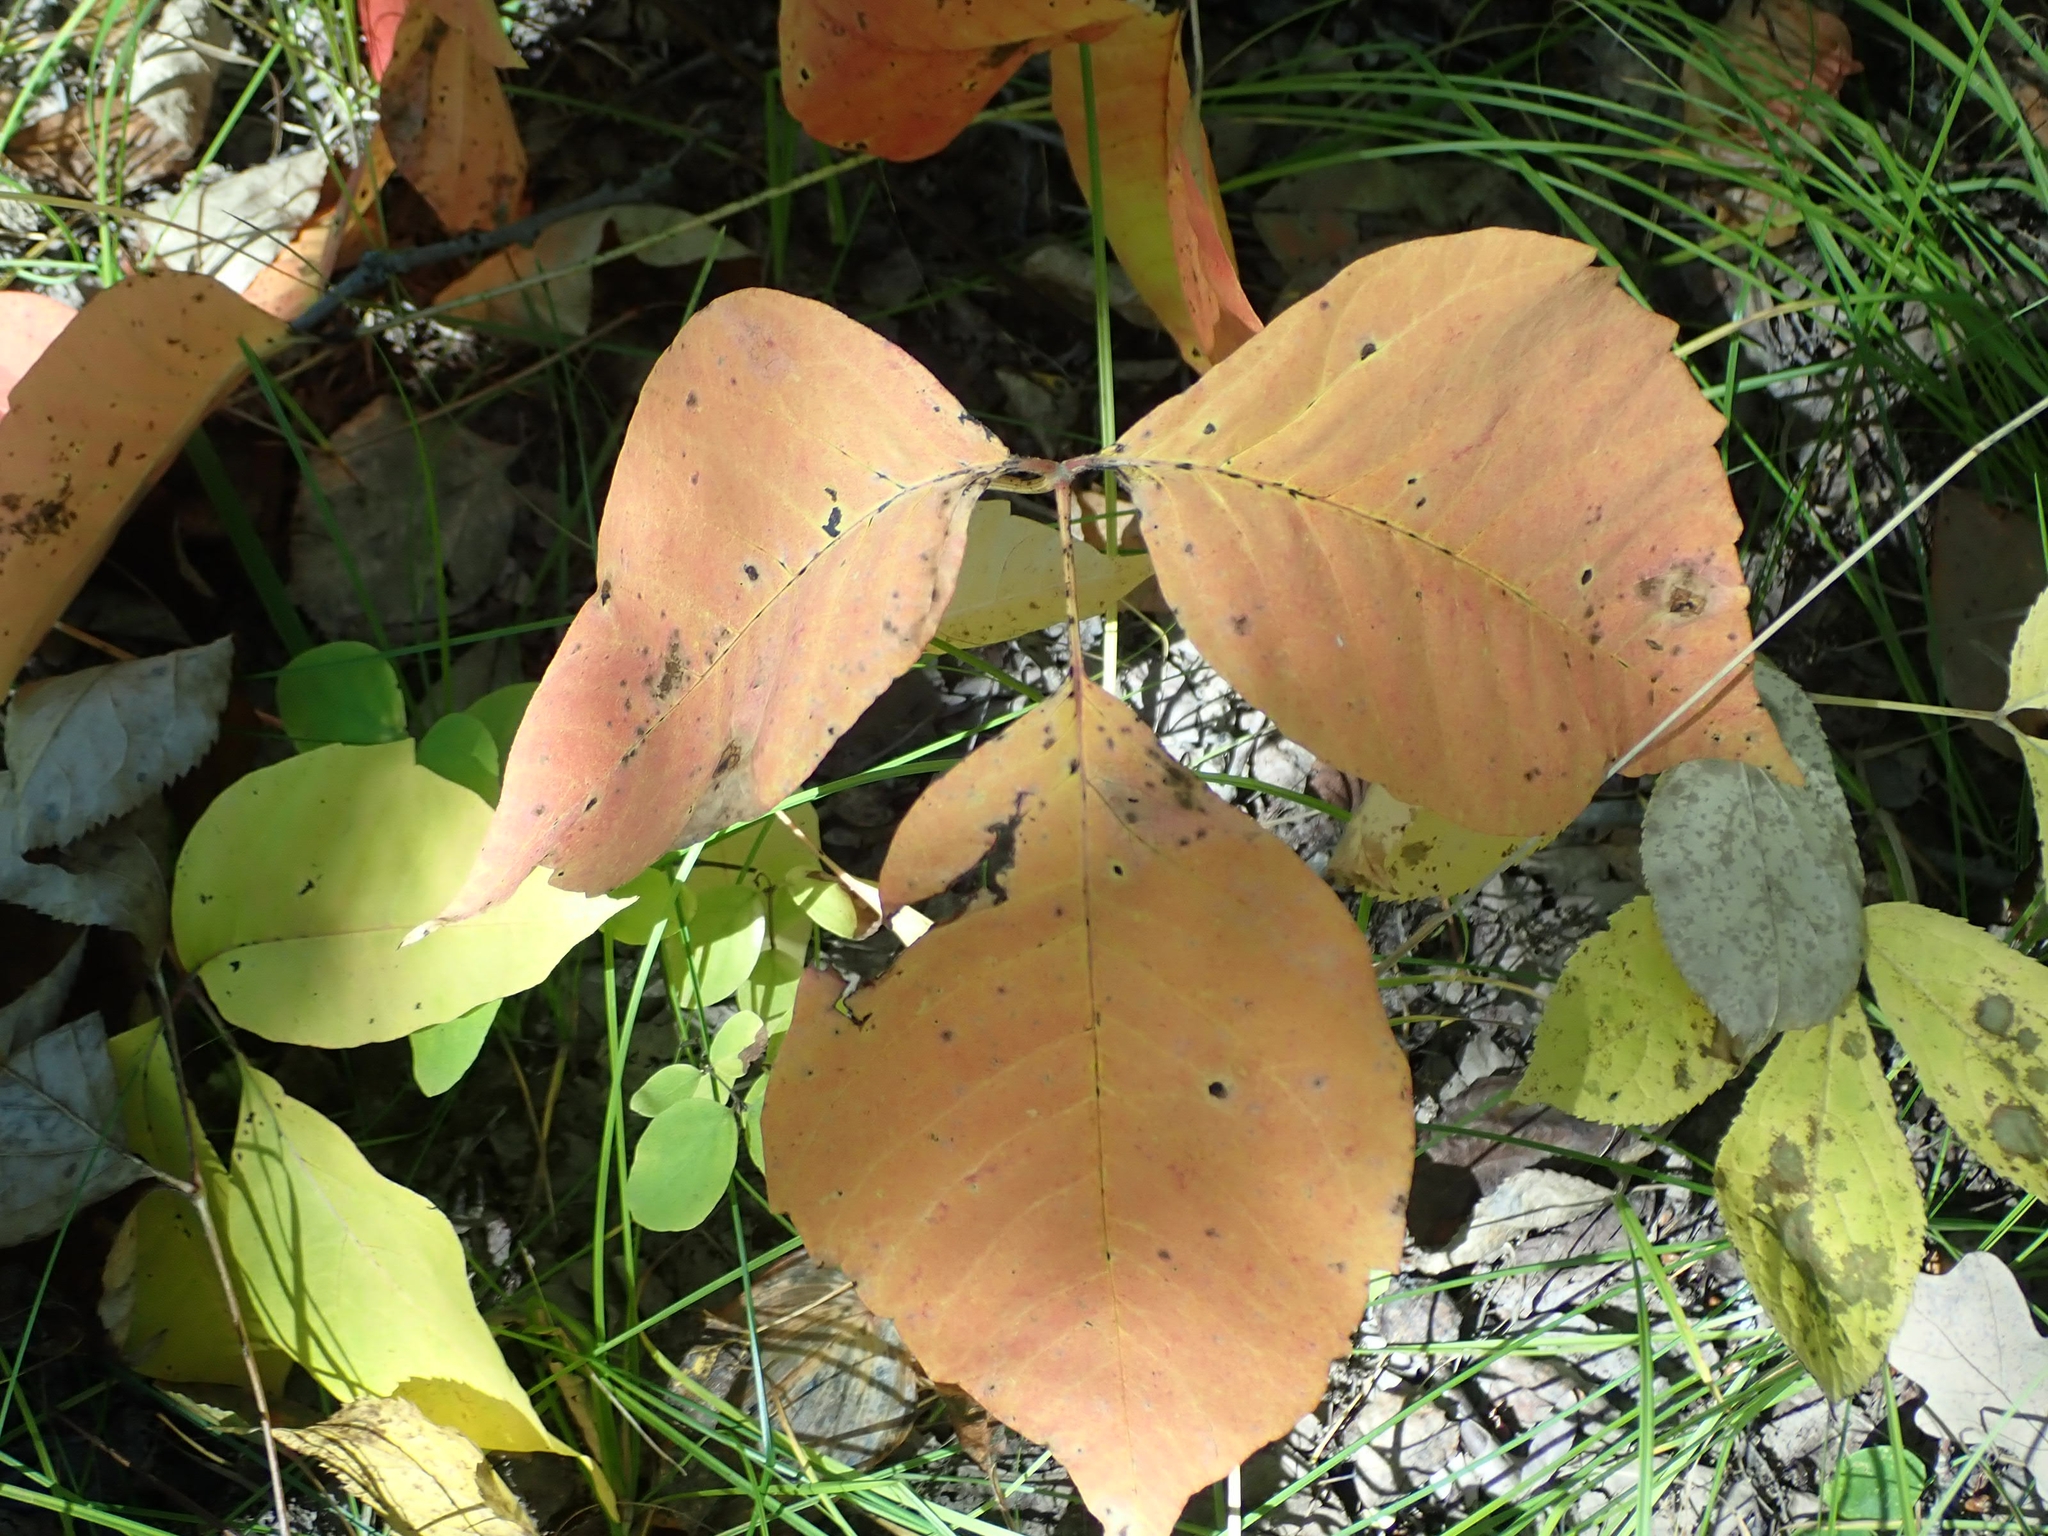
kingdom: Plantae
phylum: Tracheophyta
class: Magnoliopsida
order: Sapindales
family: Anacardiaceae
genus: Toxicodendron
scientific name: Toxicodendron rydbergii
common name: Rydberg's poison-ivy
